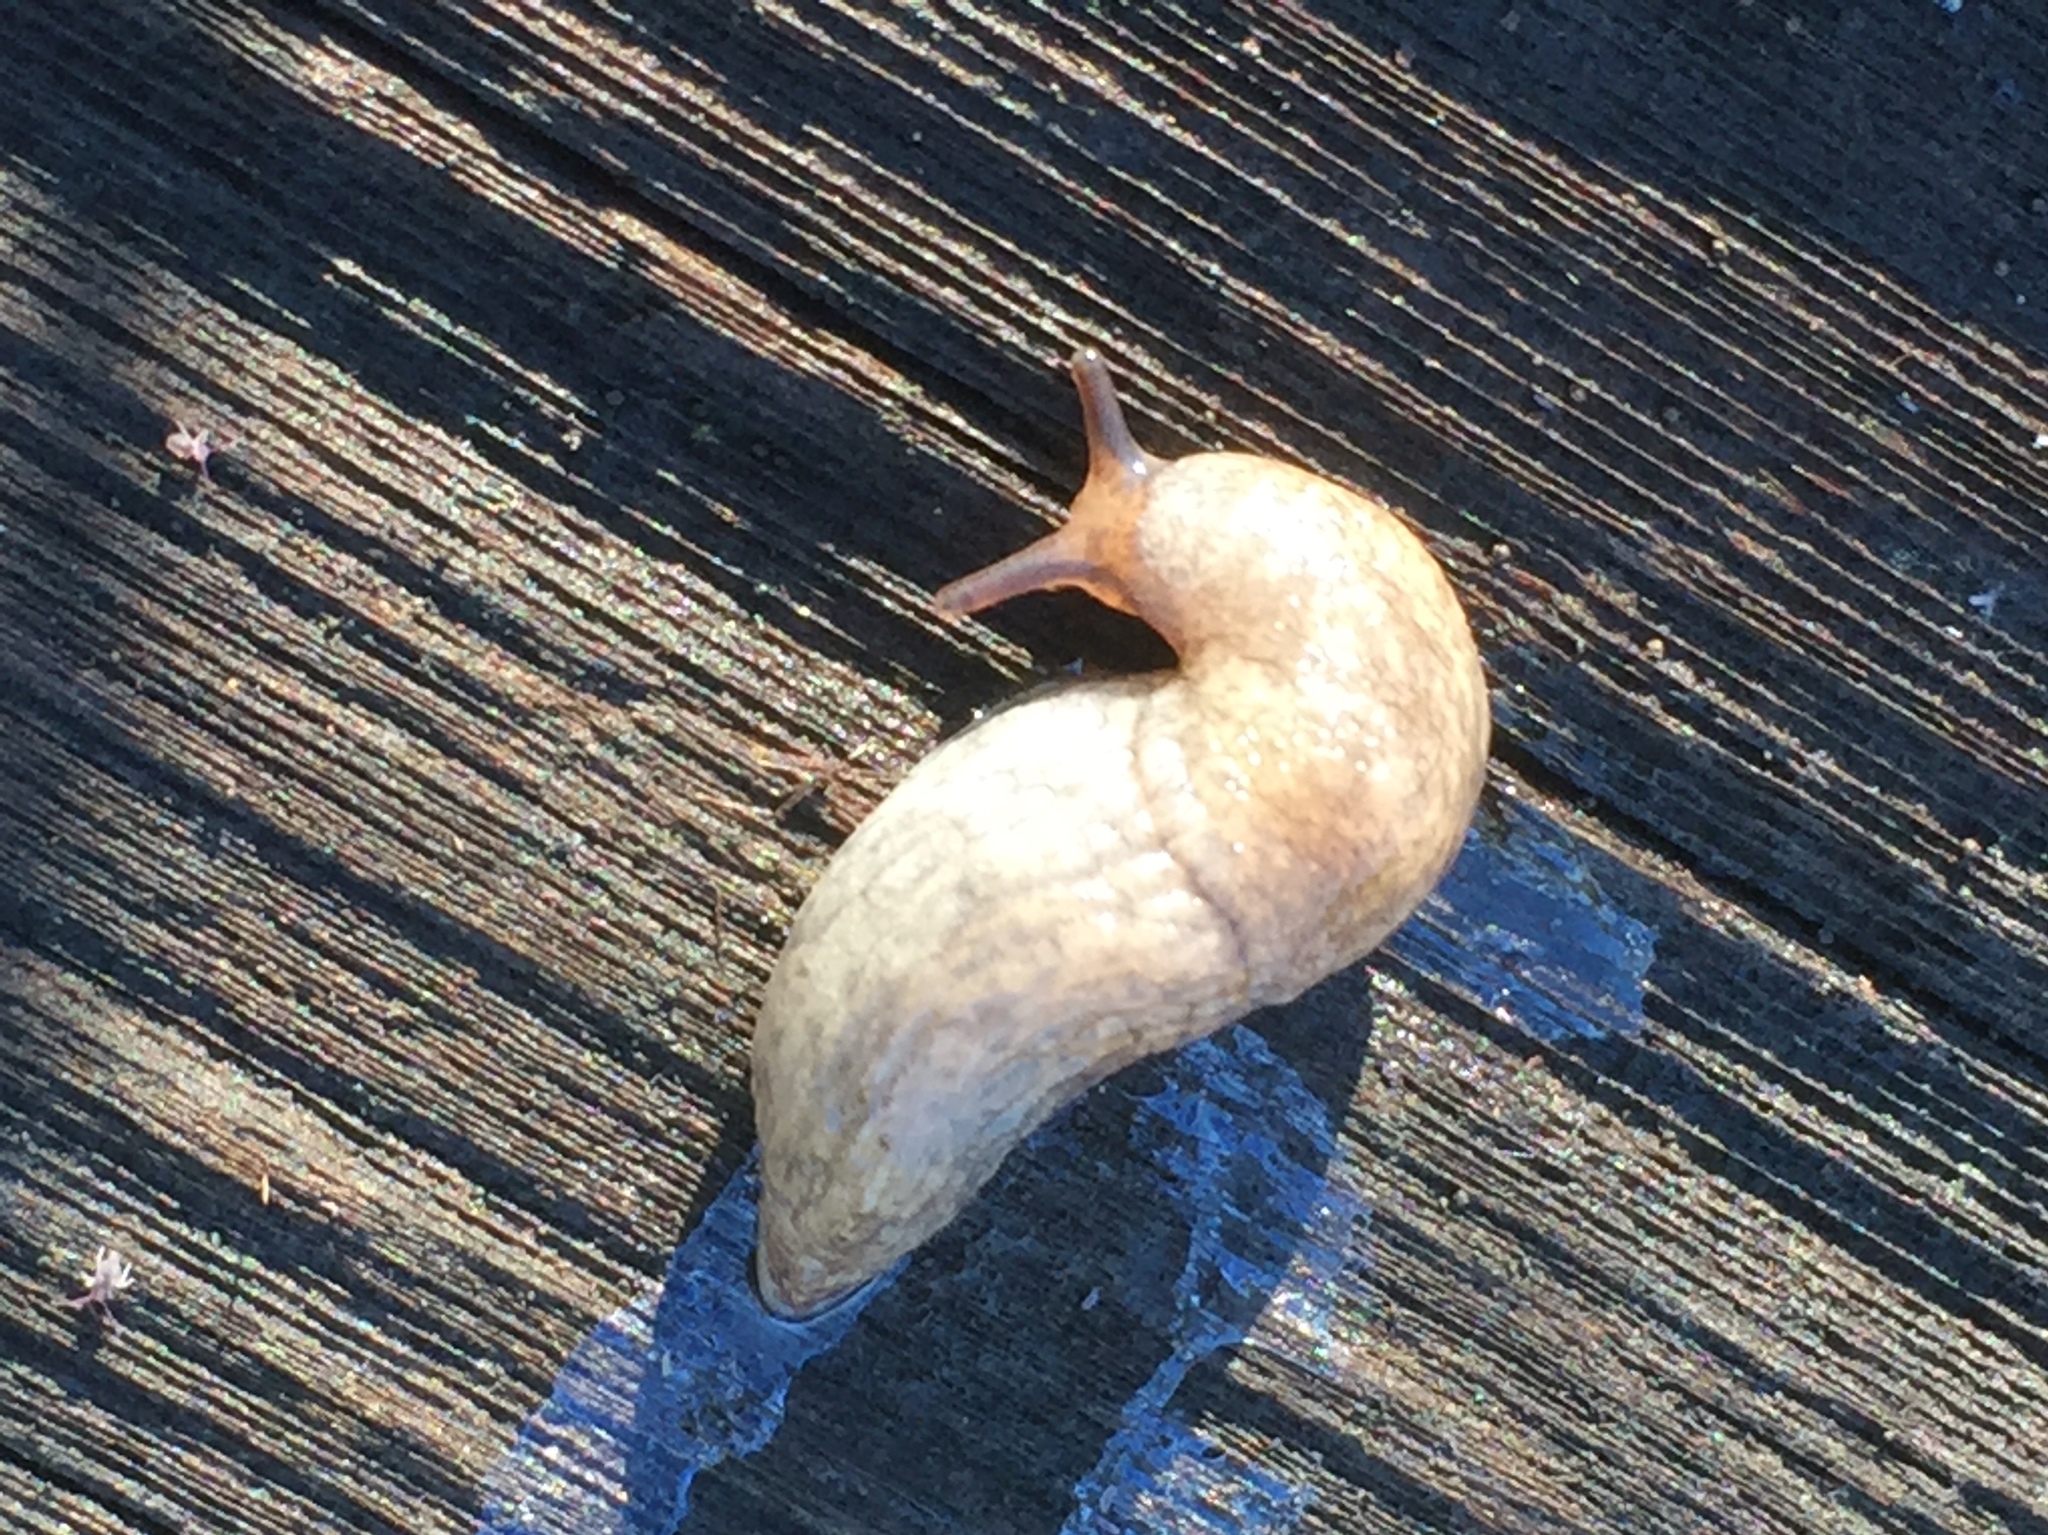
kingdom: Animalia
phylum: Mollusca
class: Gastropoda
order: Stylommatophora
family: Agriolimacidae
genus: Deroceras
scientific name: Deroceras reticulatum
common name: Gray field slug
